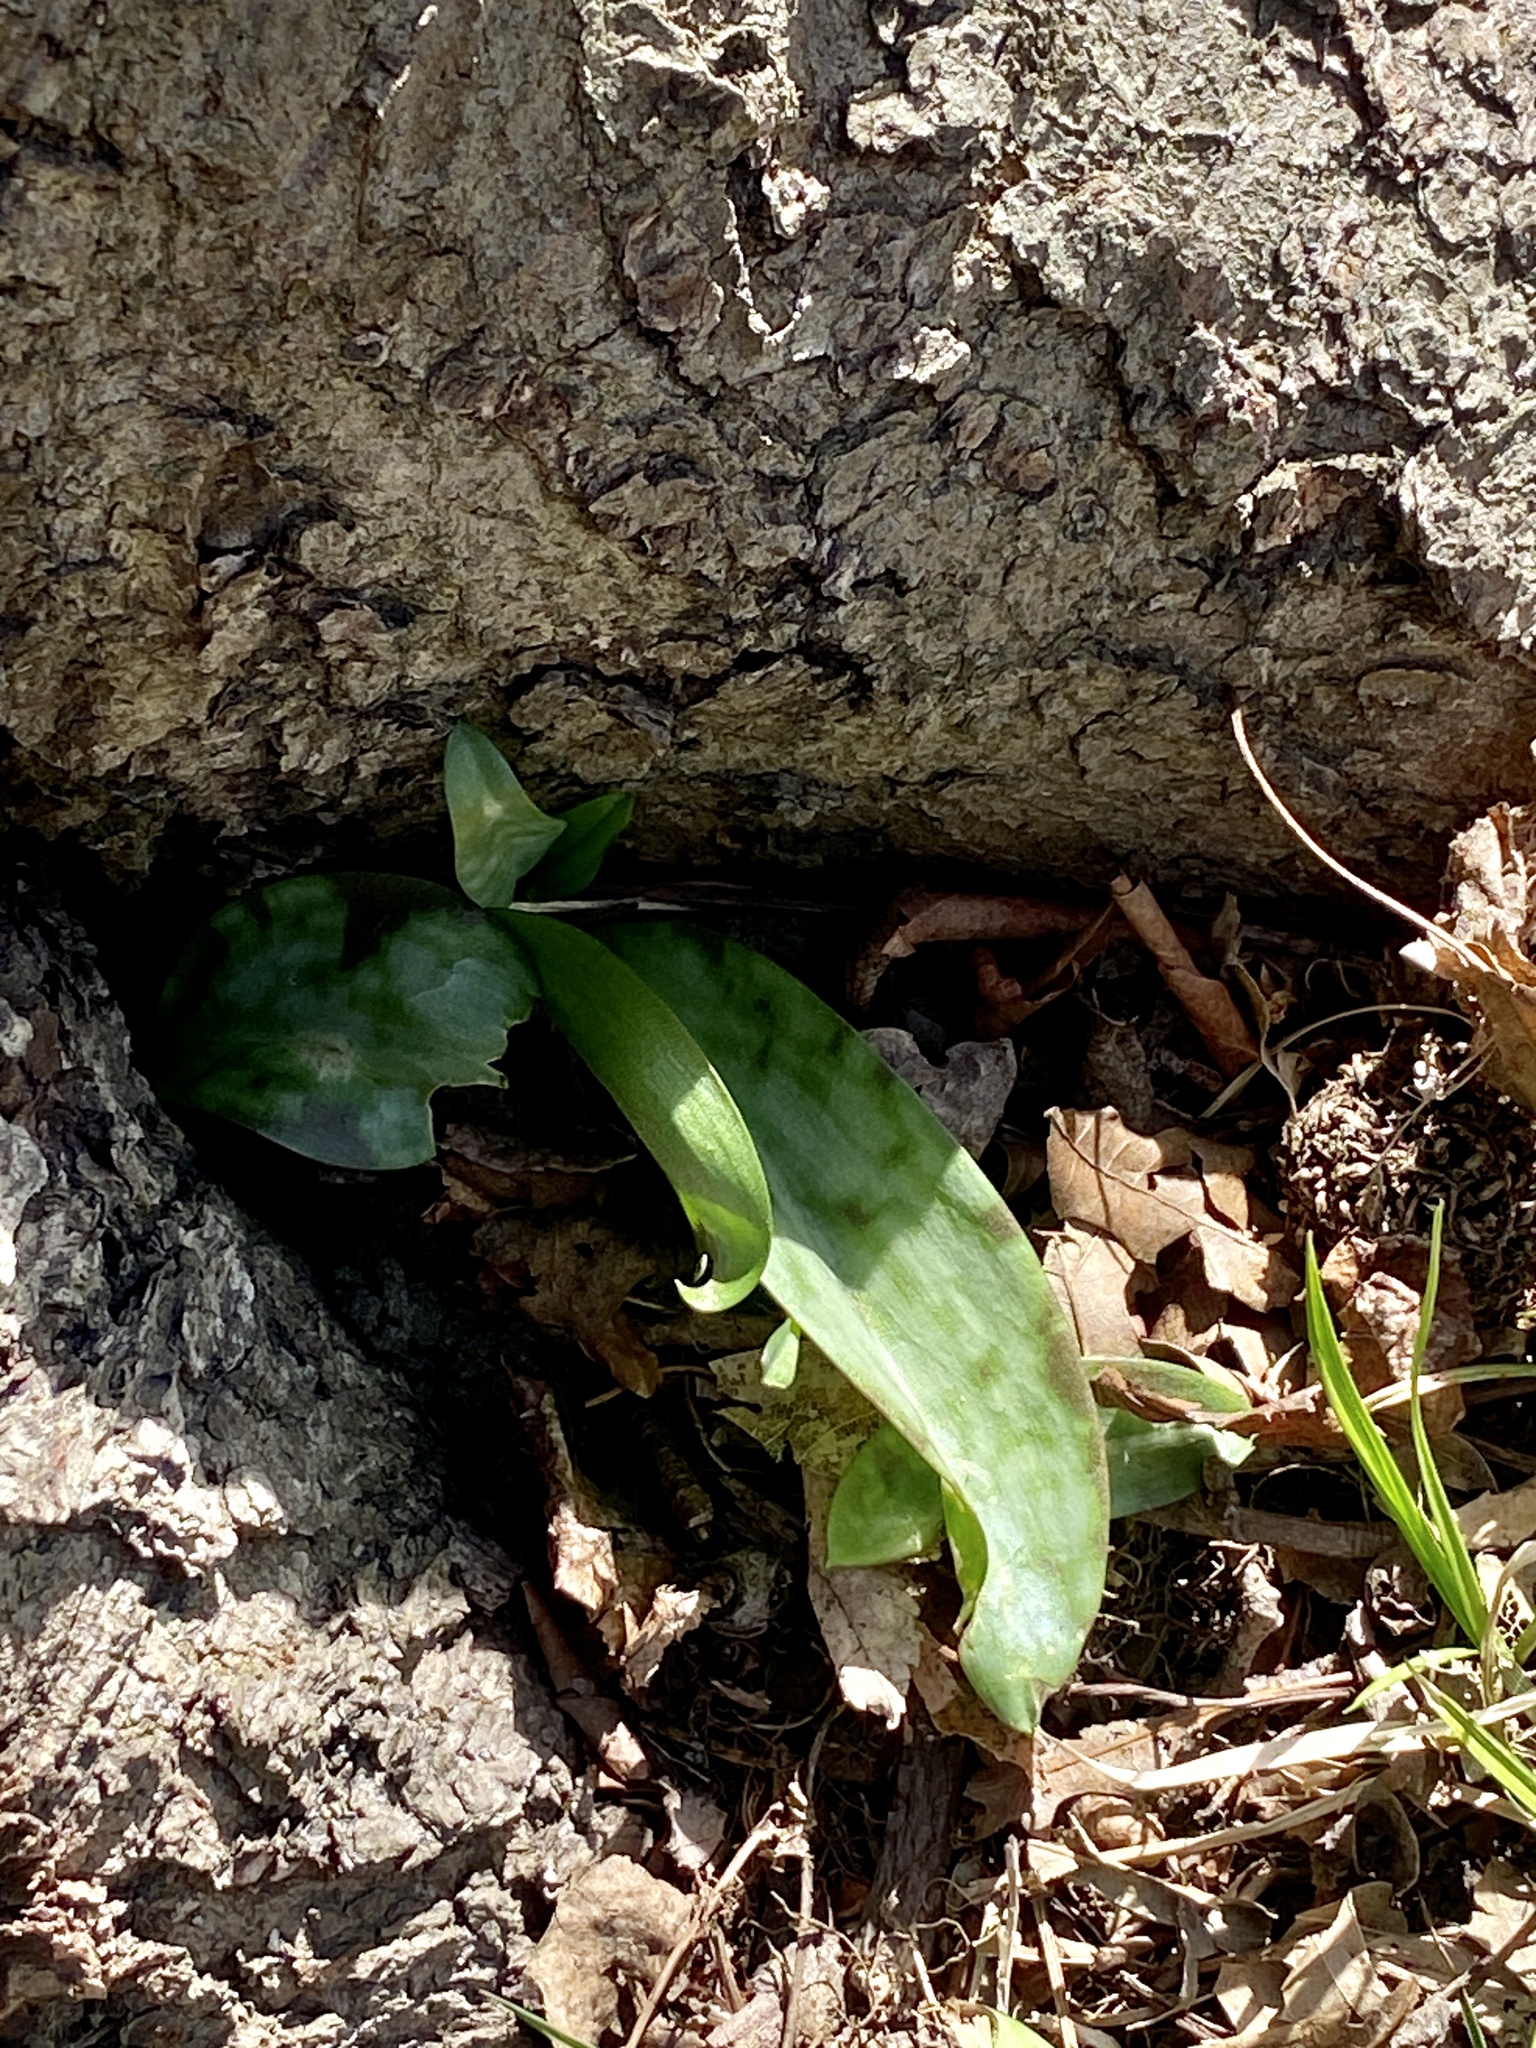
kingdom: Plantae
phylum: Tracheophyta
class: Liliopsida
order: Liliales
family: Liliaceae
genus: Erythronium
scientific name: Erythronium americanum
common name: Yellow adder's-tongue
